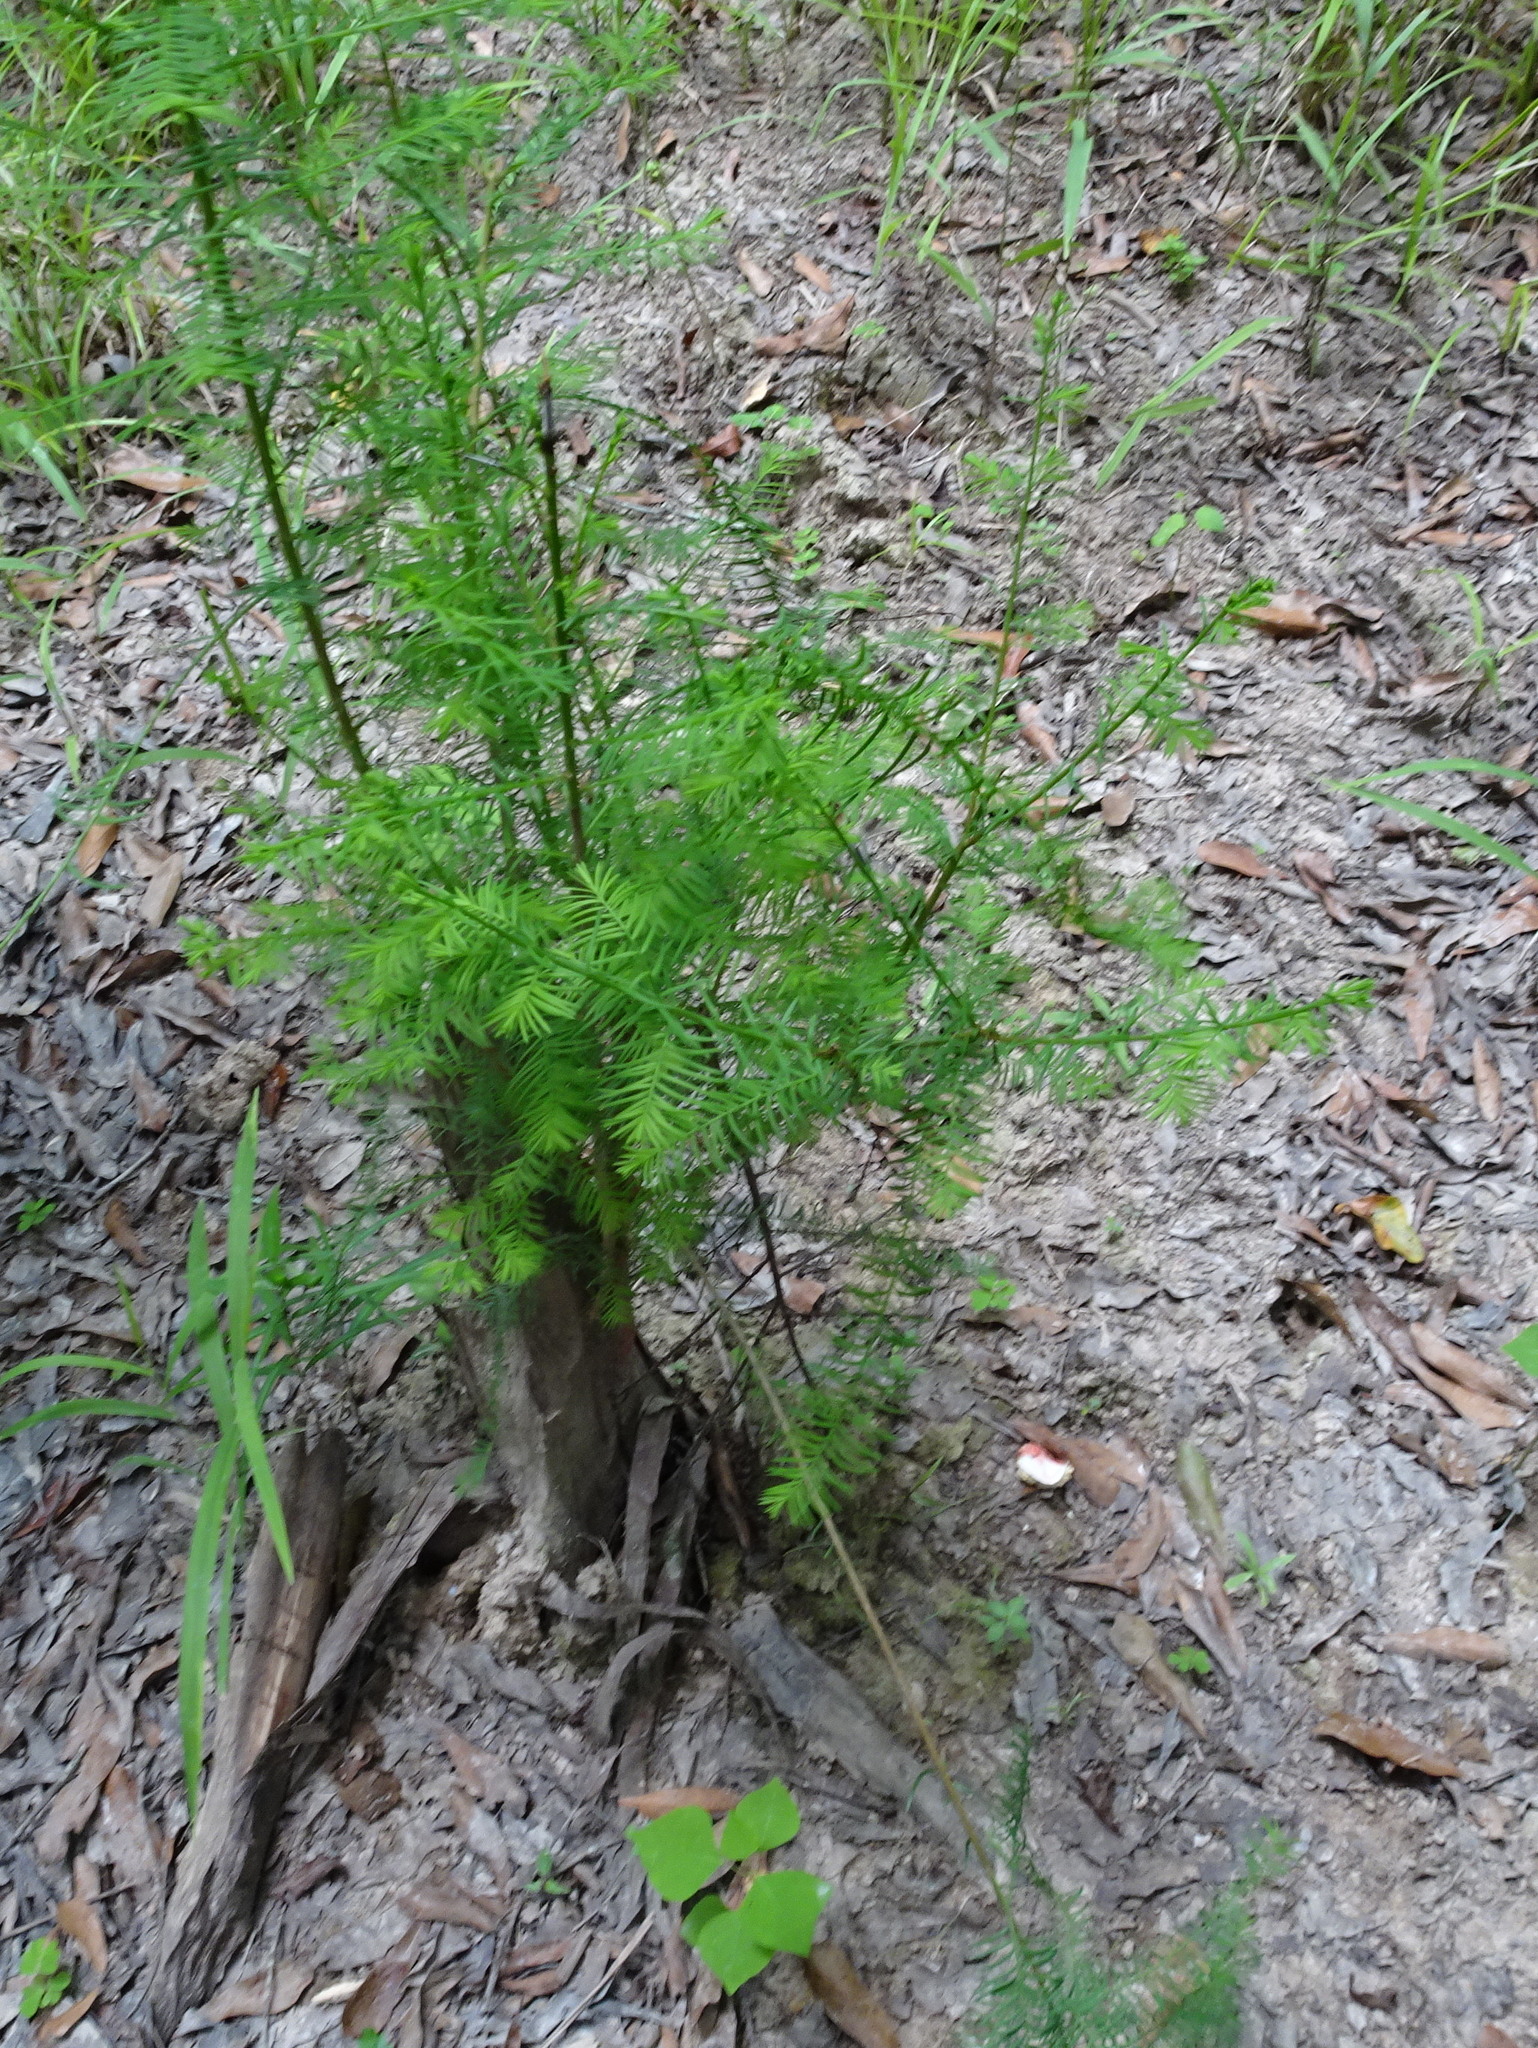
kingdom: Plantae
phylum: Tracheophyta
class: Pinopsida
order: Pinales
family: Cupressaceae
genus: Taxodium
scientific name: Taxodium distichum
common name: Bald cypress
